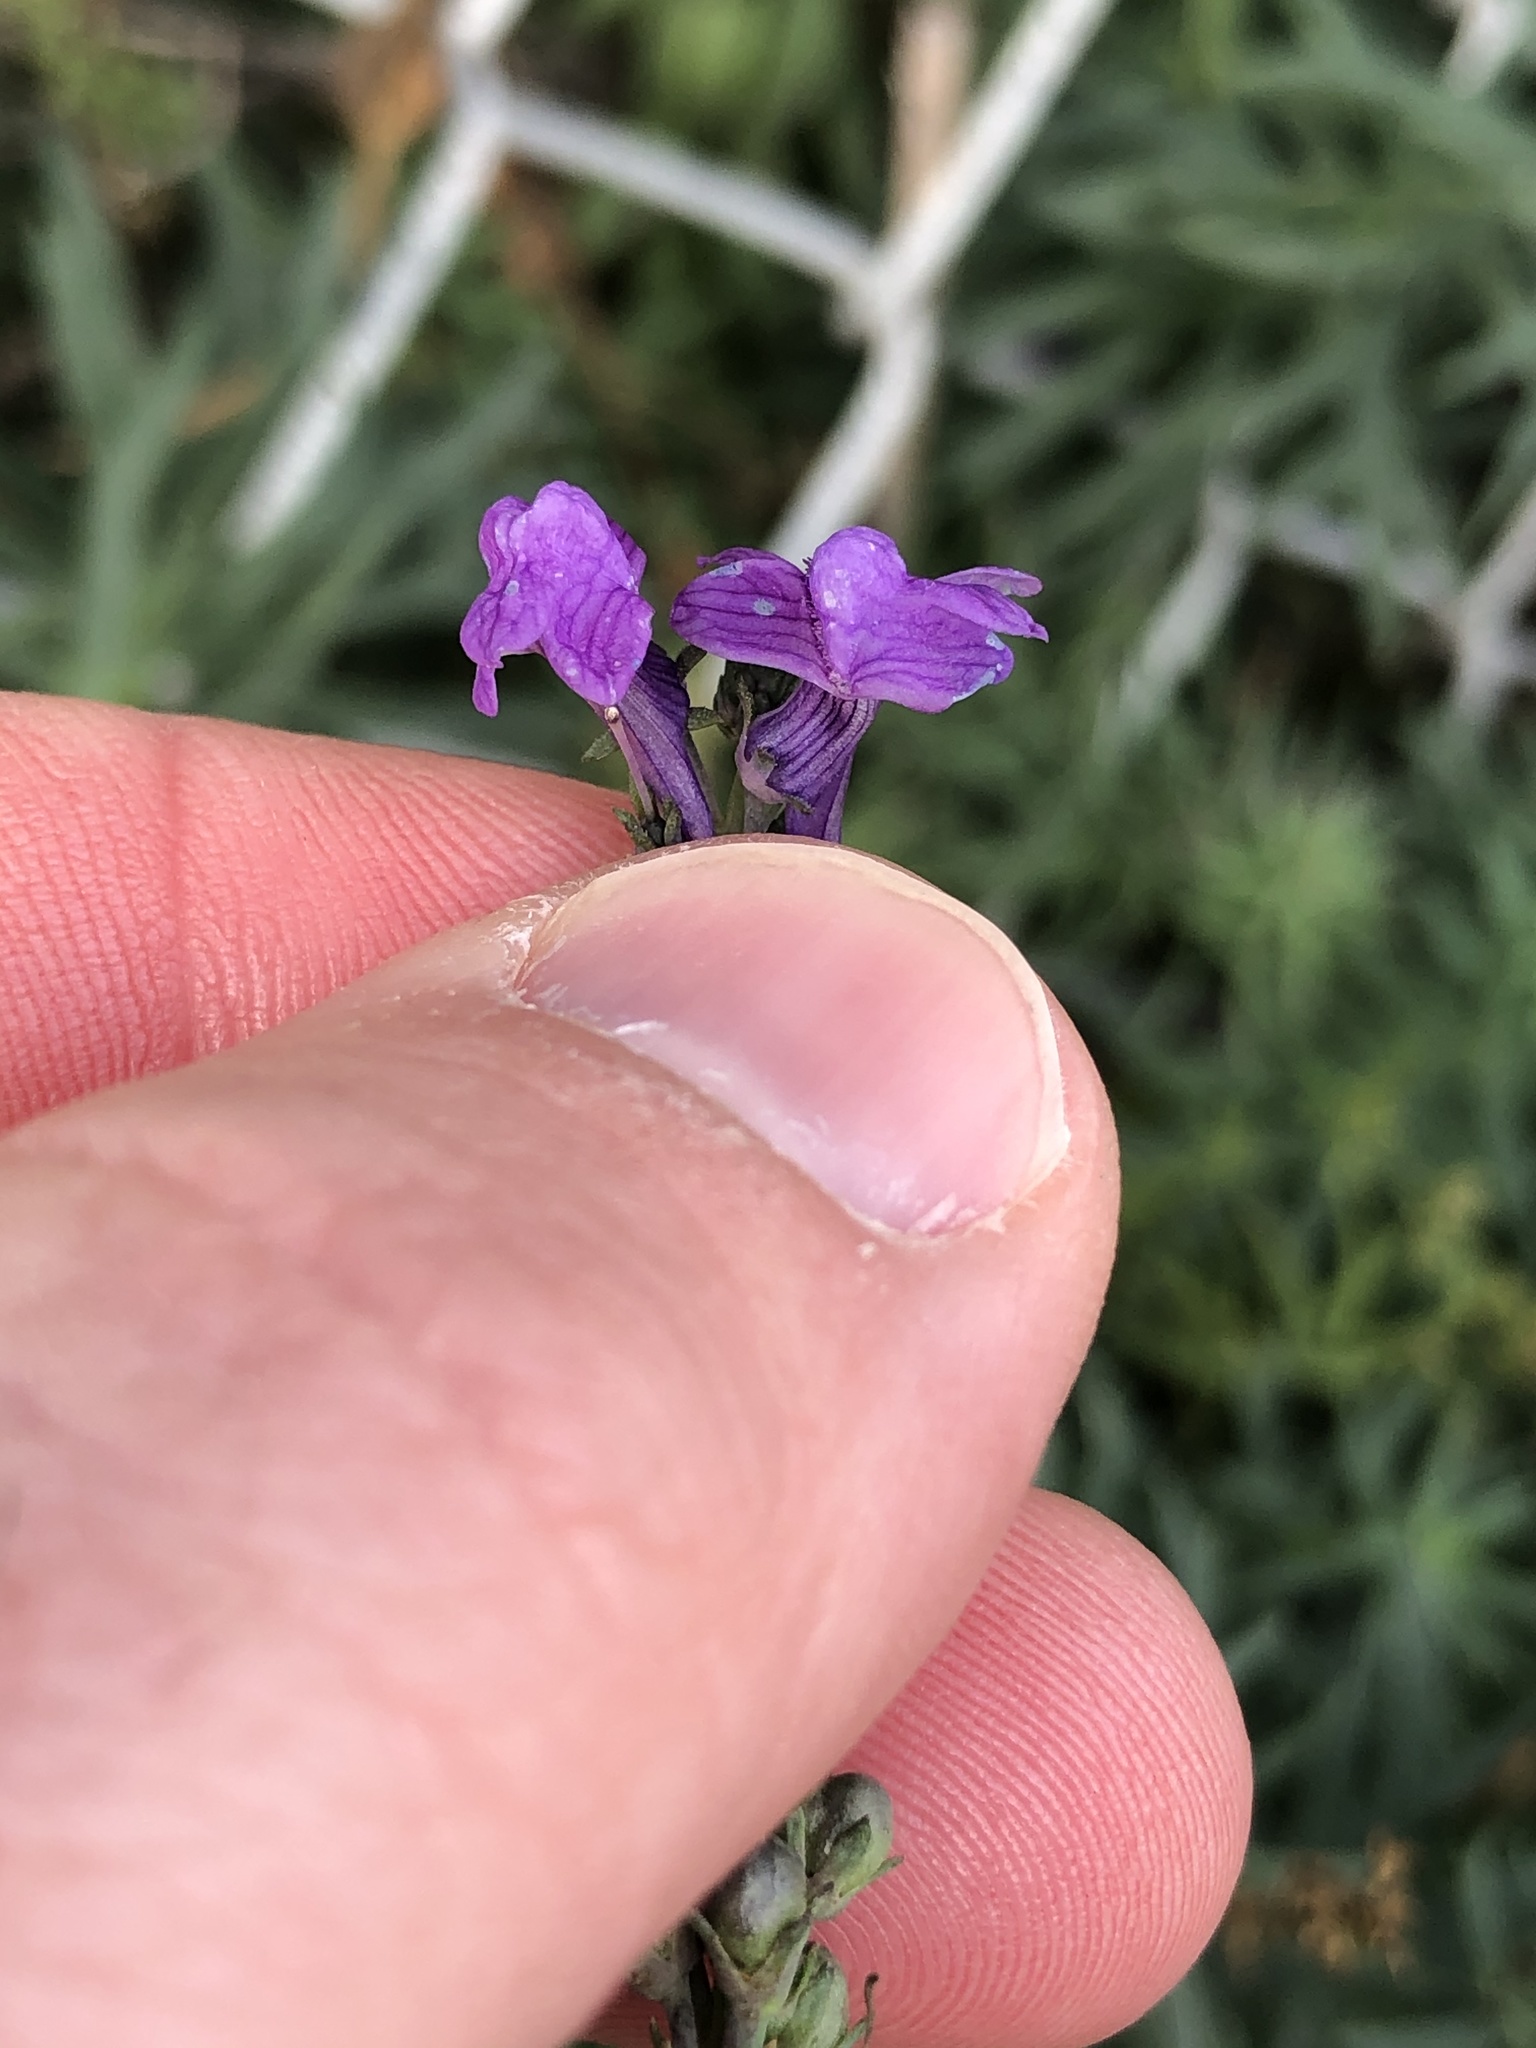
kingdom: Plantae
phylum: Tracheophyta
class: Magnoliopsida
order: Lamiales
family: Plantaginaceae
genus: Linaria
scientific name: Linaria purpurea
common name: Purple toadflax
